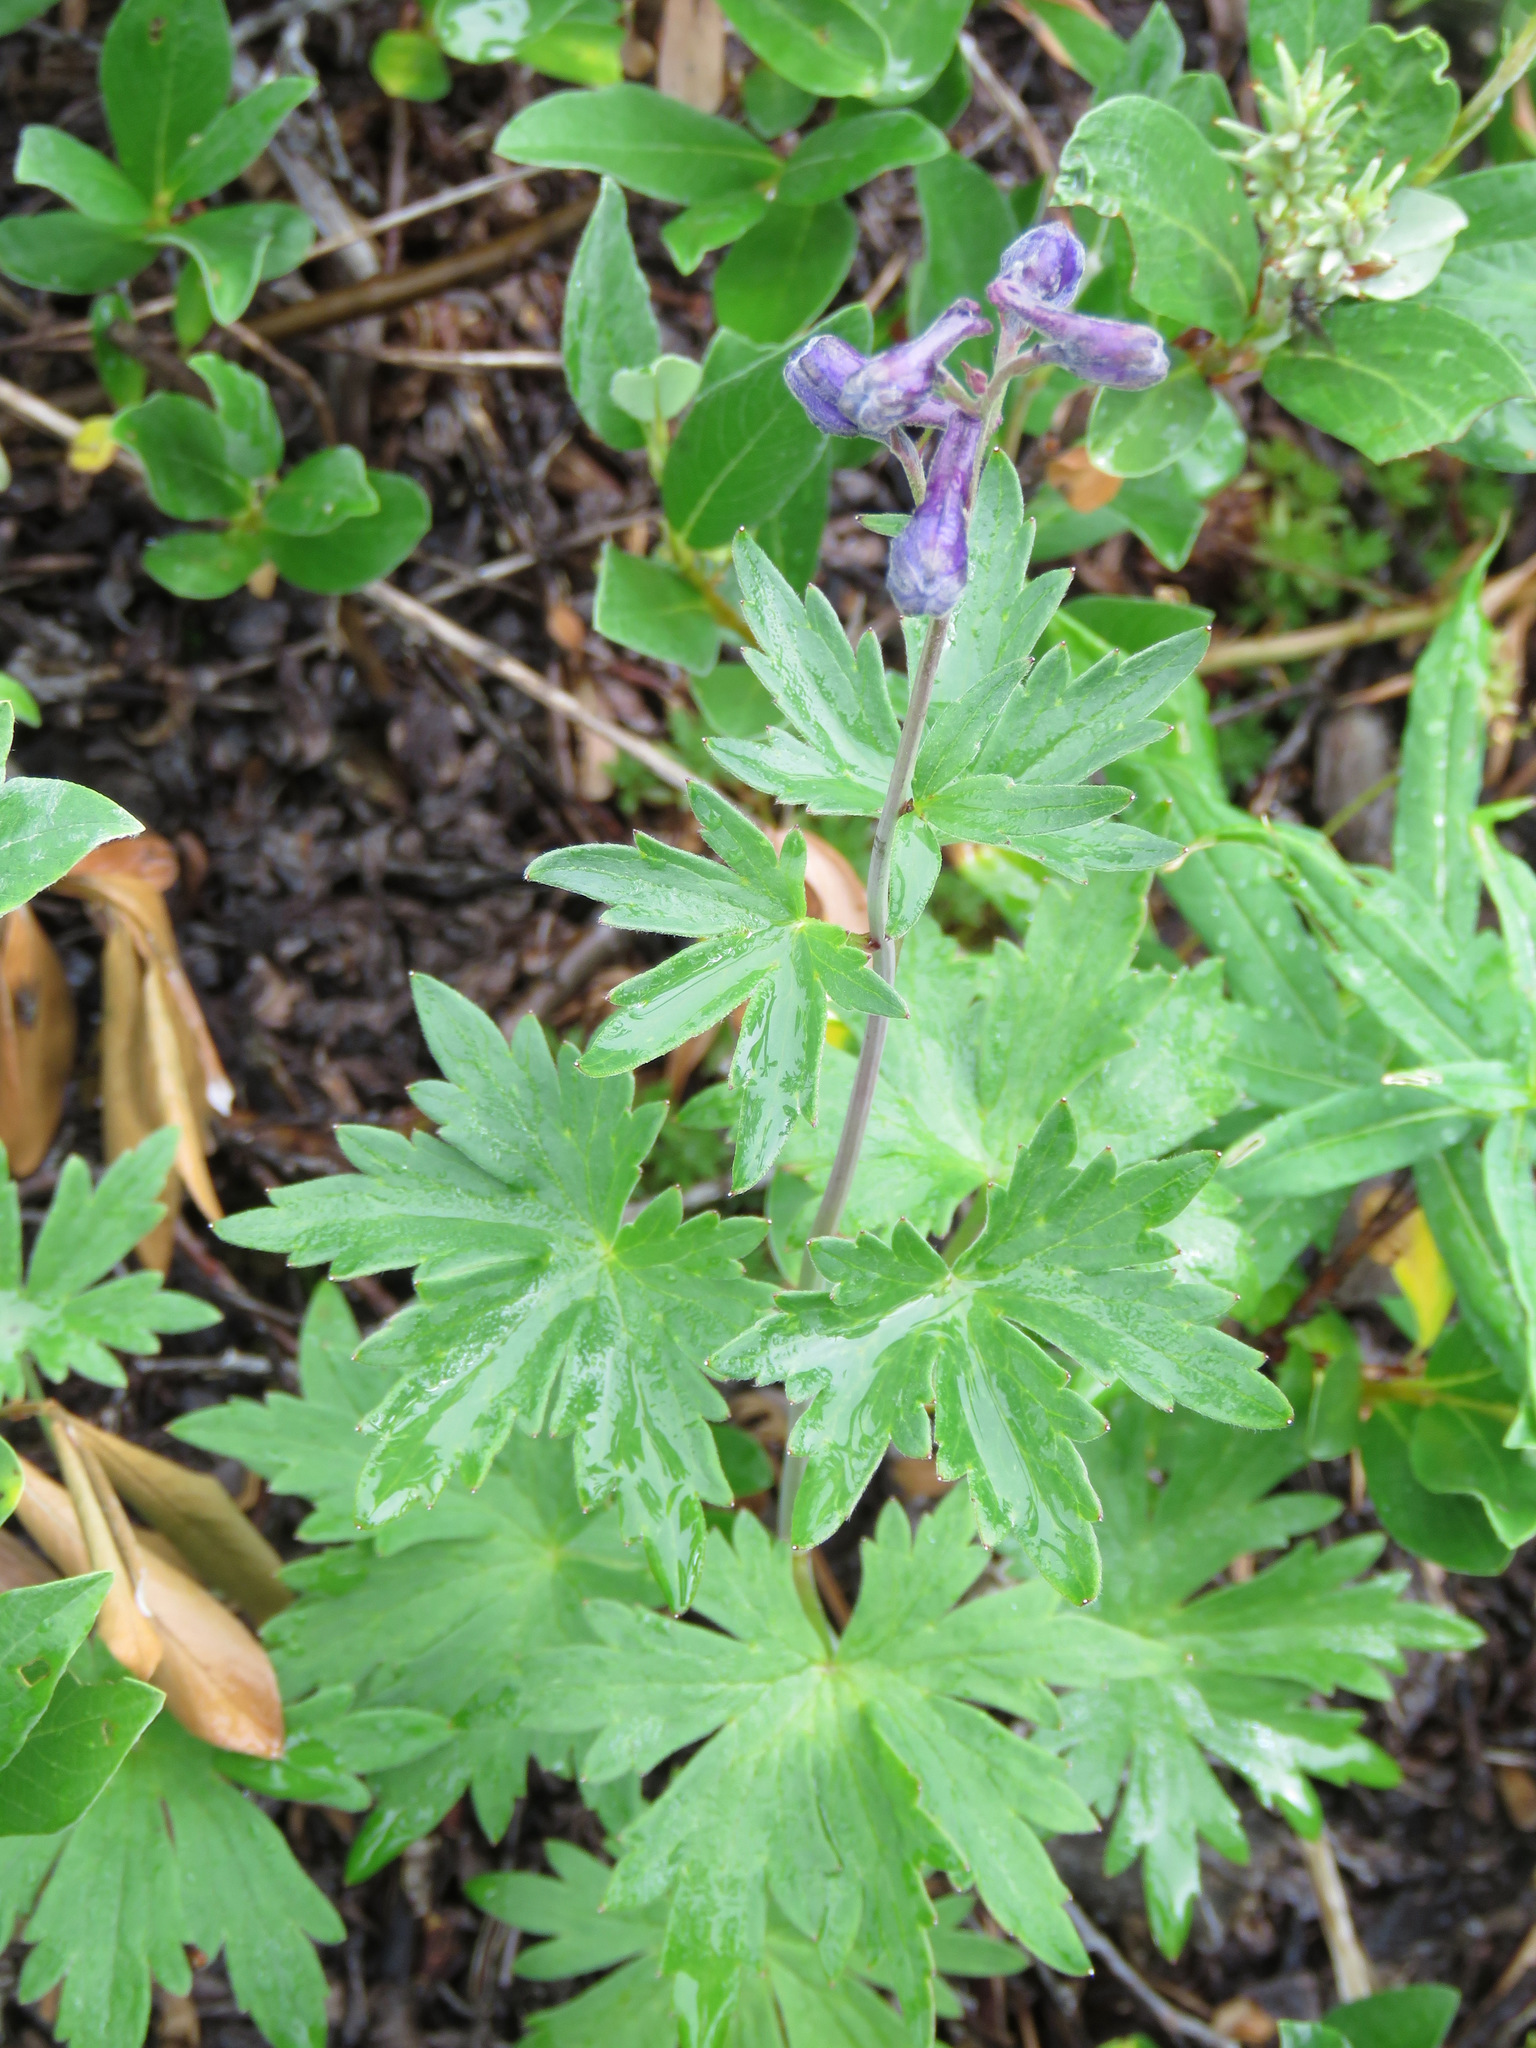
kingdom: Plantae
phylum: Tracheophyta
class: Magnoliopsida
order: Ranunculales
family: Ranunculaceae
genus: Delphinium
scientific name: Delphinium glaucum
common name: Brown's larkspur
